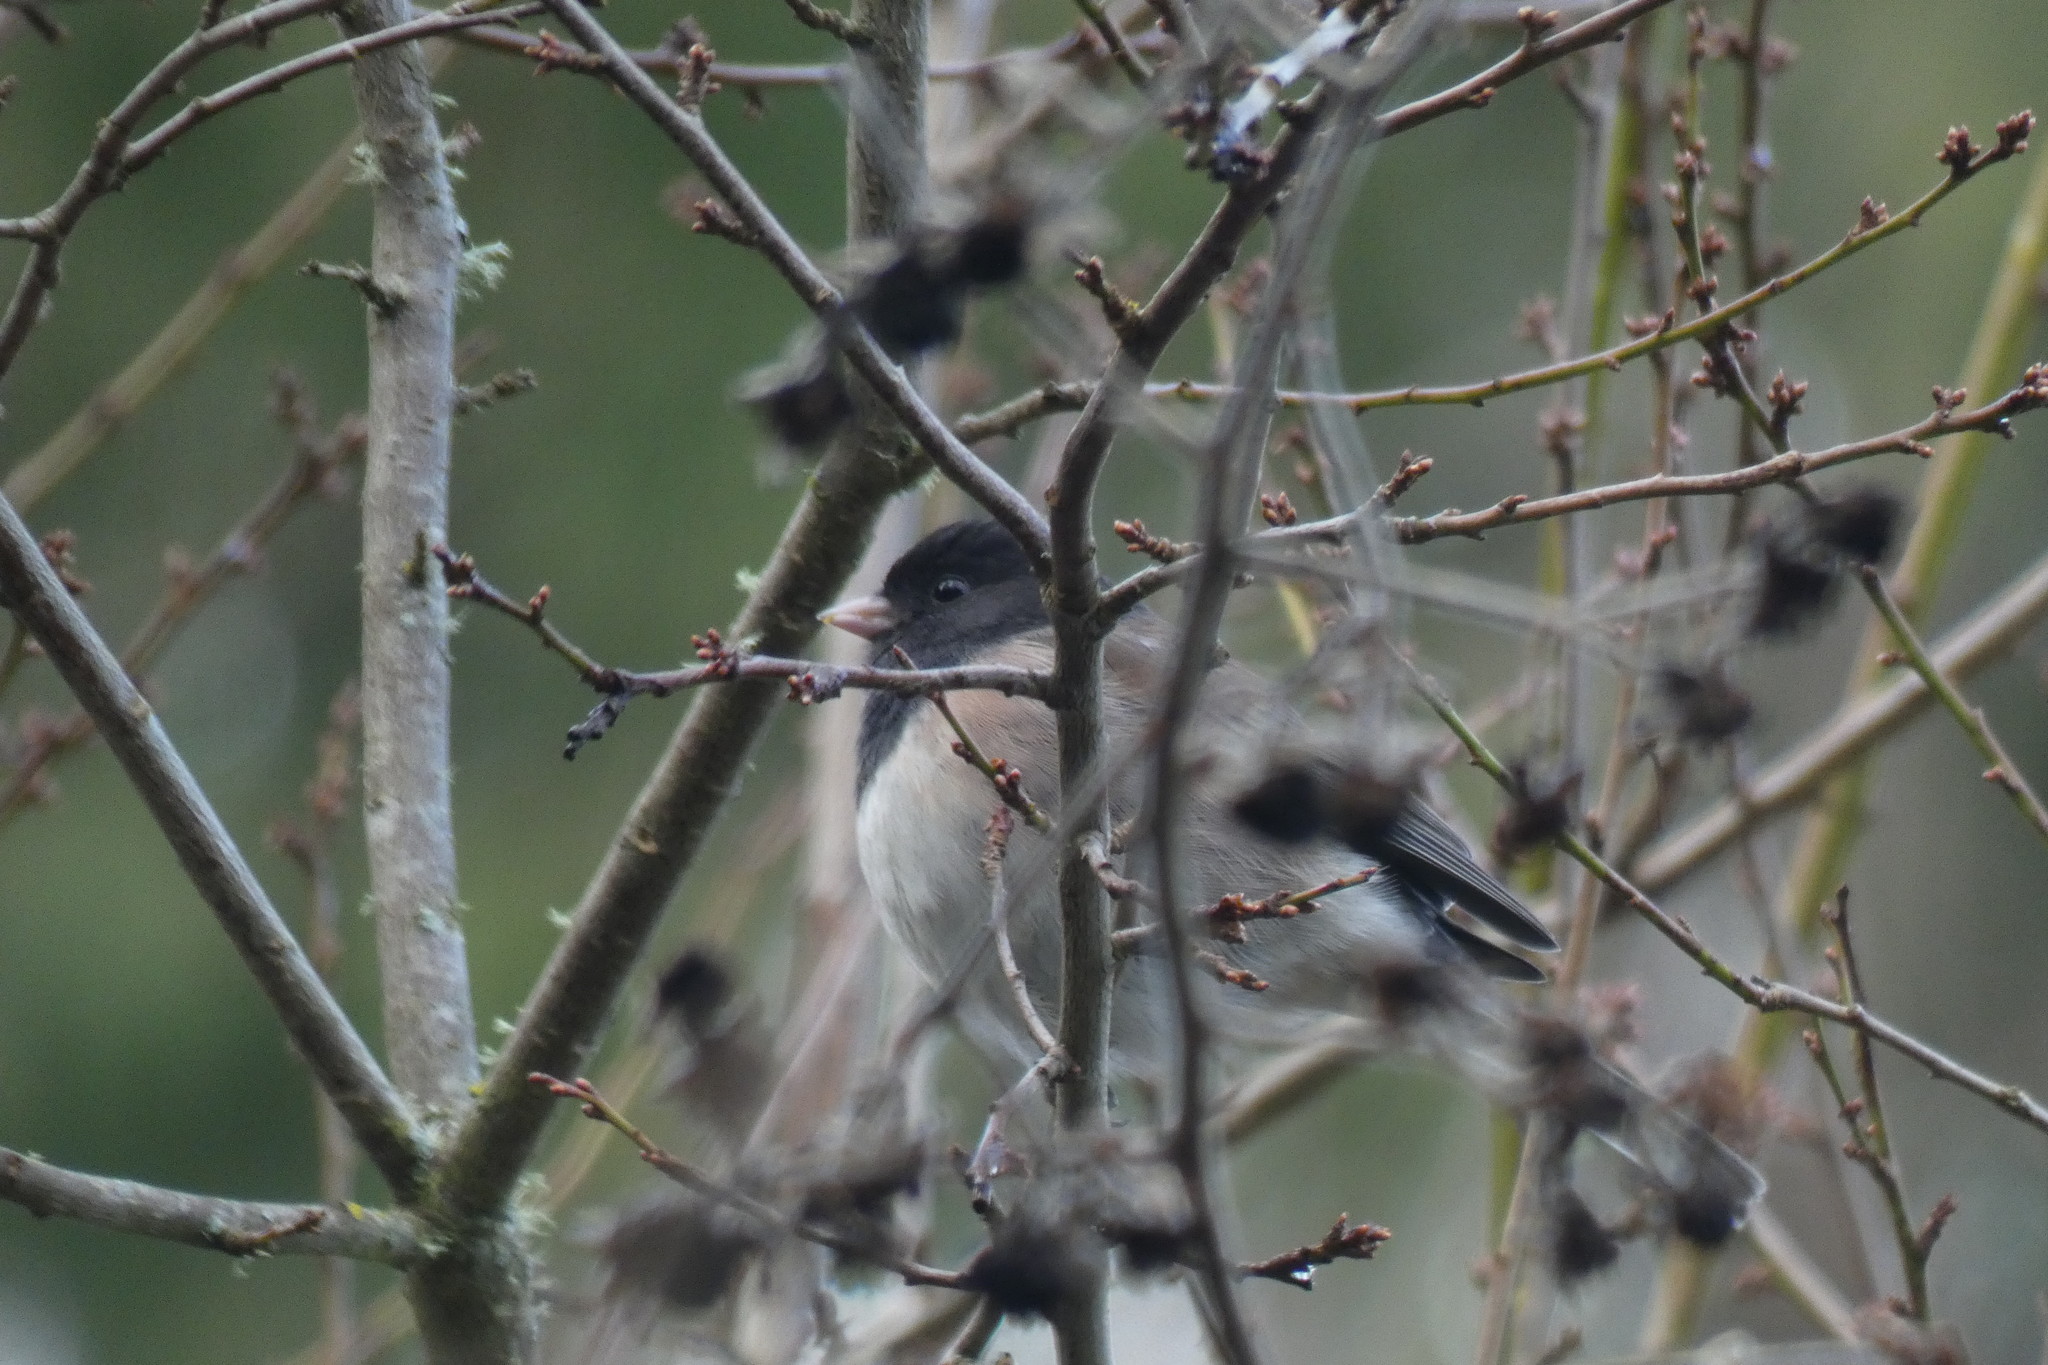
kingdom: Animalia
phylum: Chordata
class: Aves
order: Passeriformes
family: Passerellidae
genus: Junco
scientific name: Junco hyemalis
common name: Dark-eyed junco
